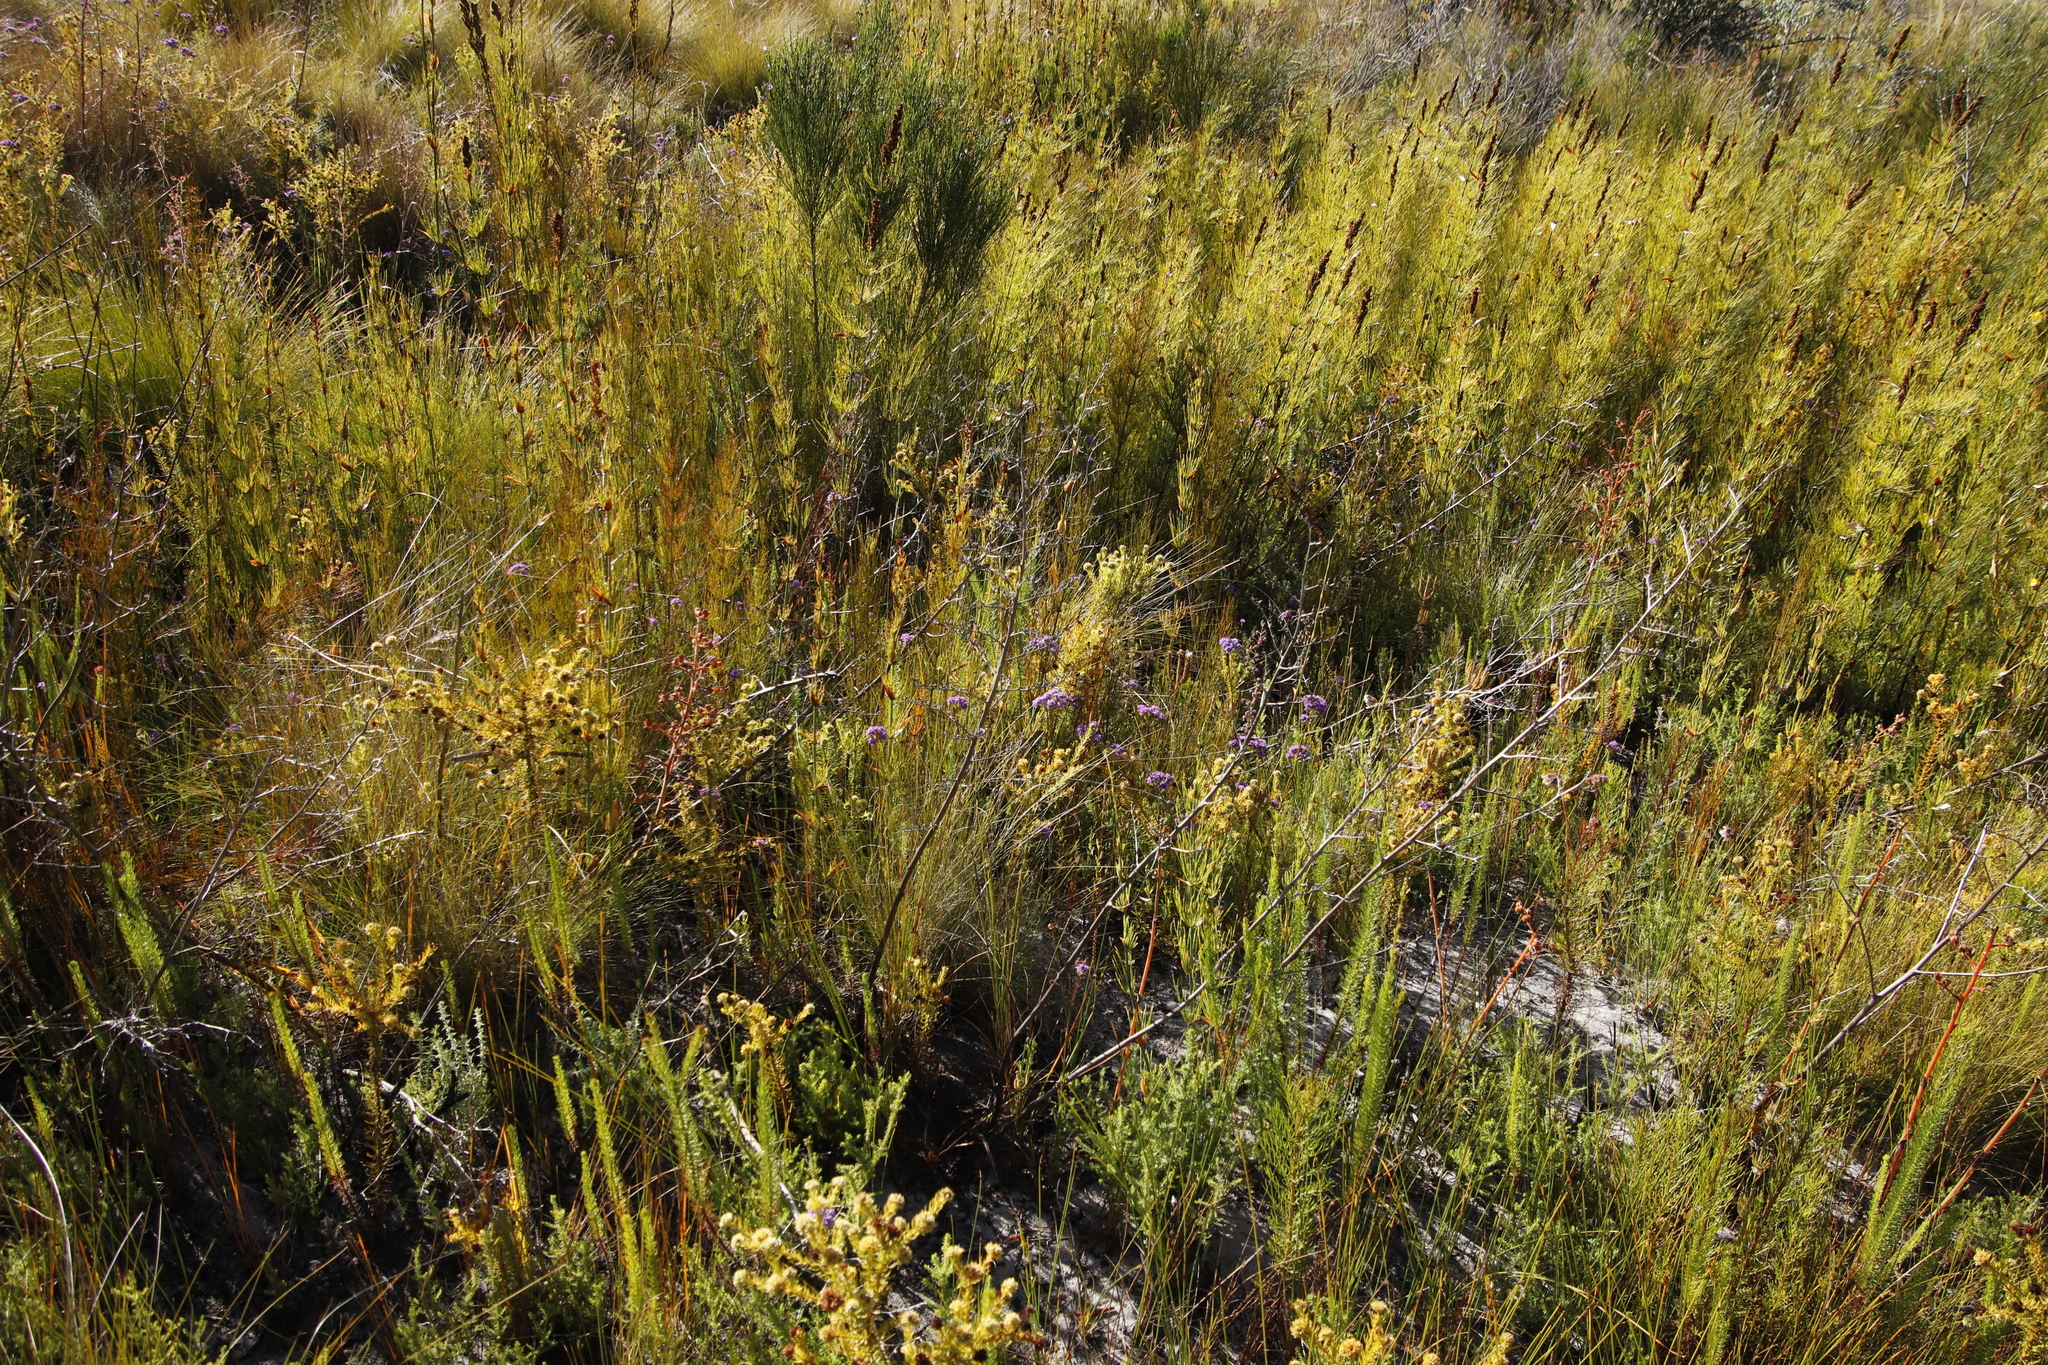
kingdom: Plantae
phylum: Tracheophyta
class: Liliopsida
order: Poales
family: Restionaceae
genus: Elegia
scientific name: Elegia capensis
